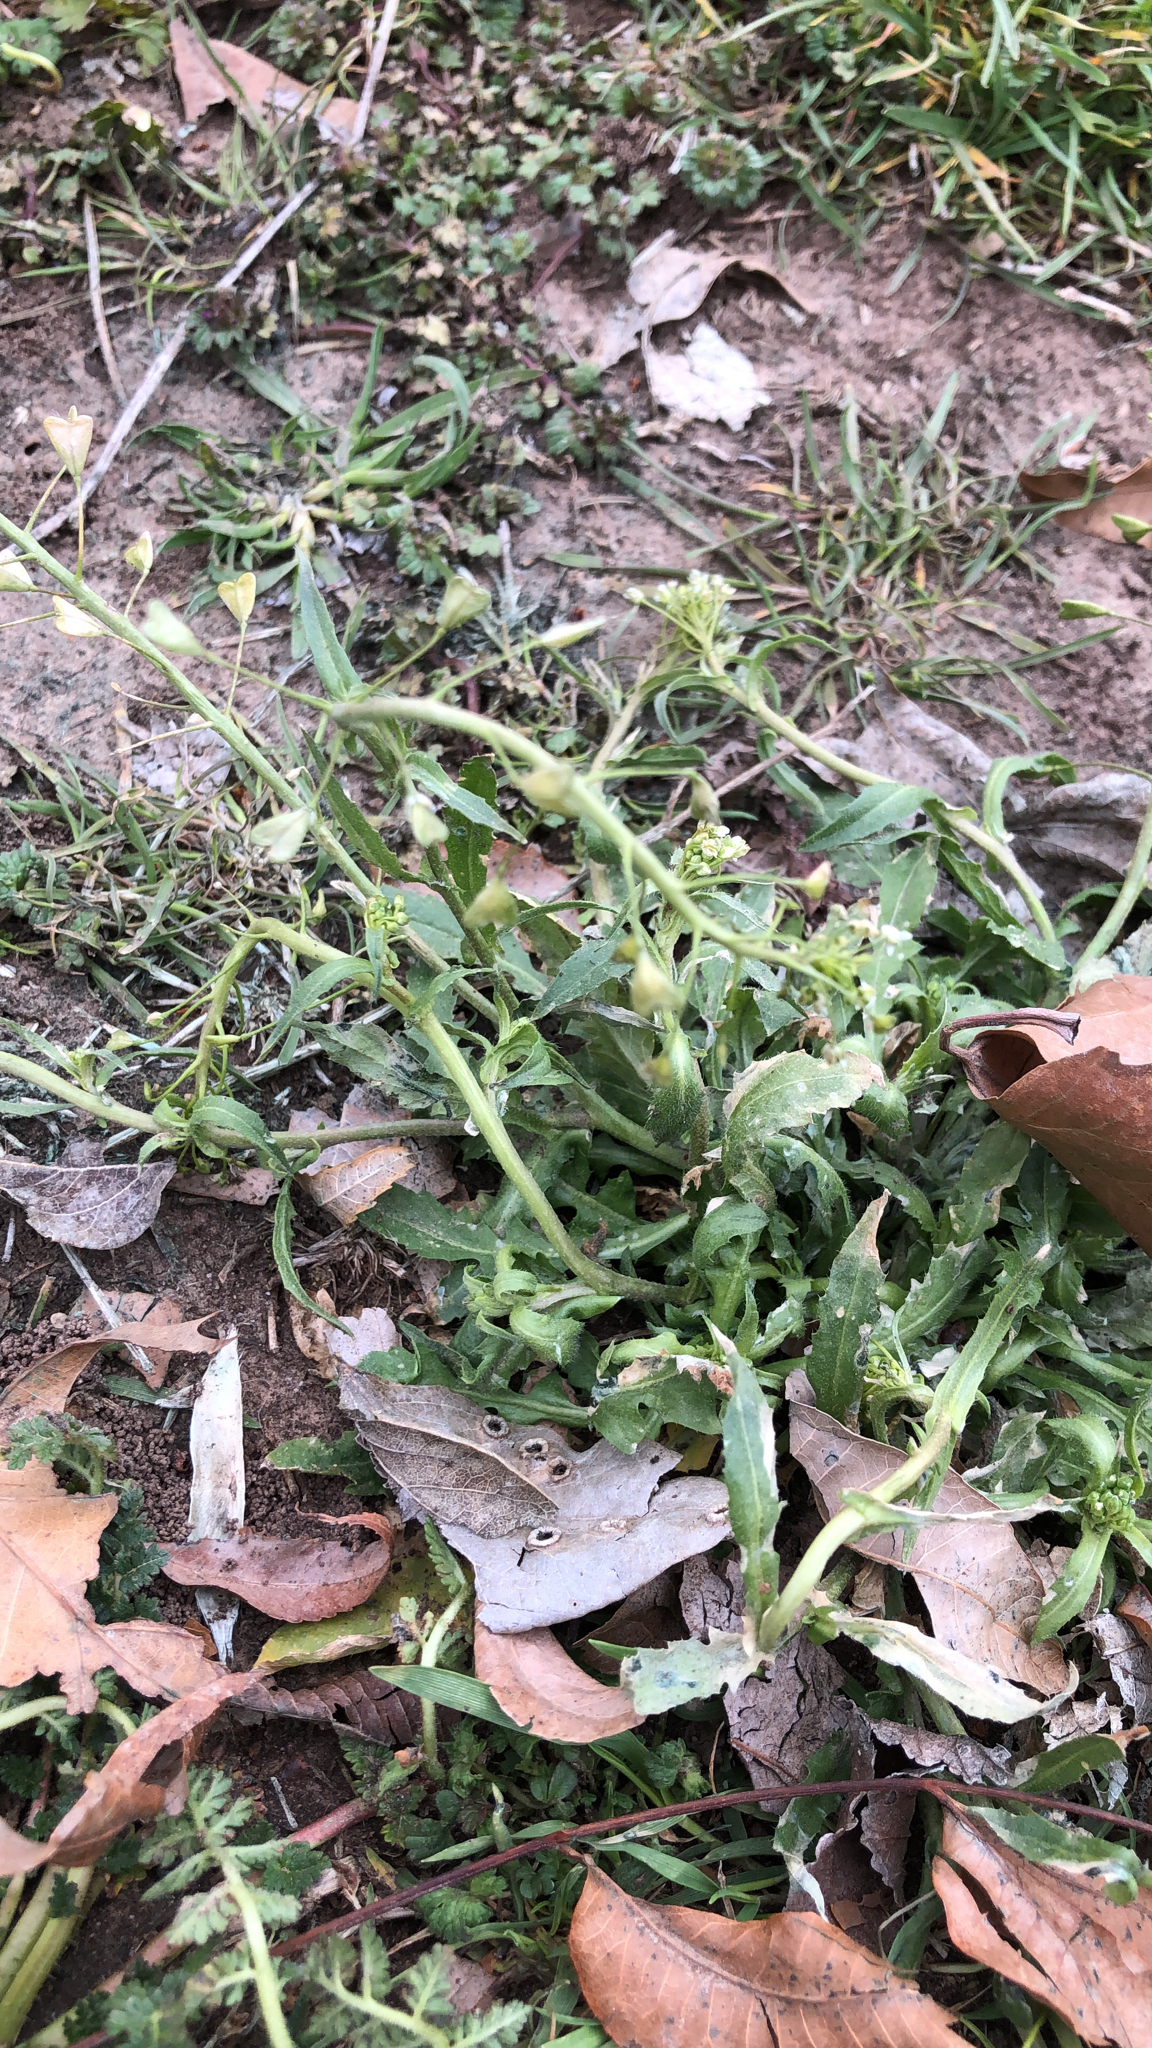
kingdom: Plantae
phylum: Tracheophyta
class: Magnoliopsida
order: Brassicales
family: Brassicaceae
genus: Capsella
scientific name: Capsella bursa-pastoris
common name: Shepherd's purse
